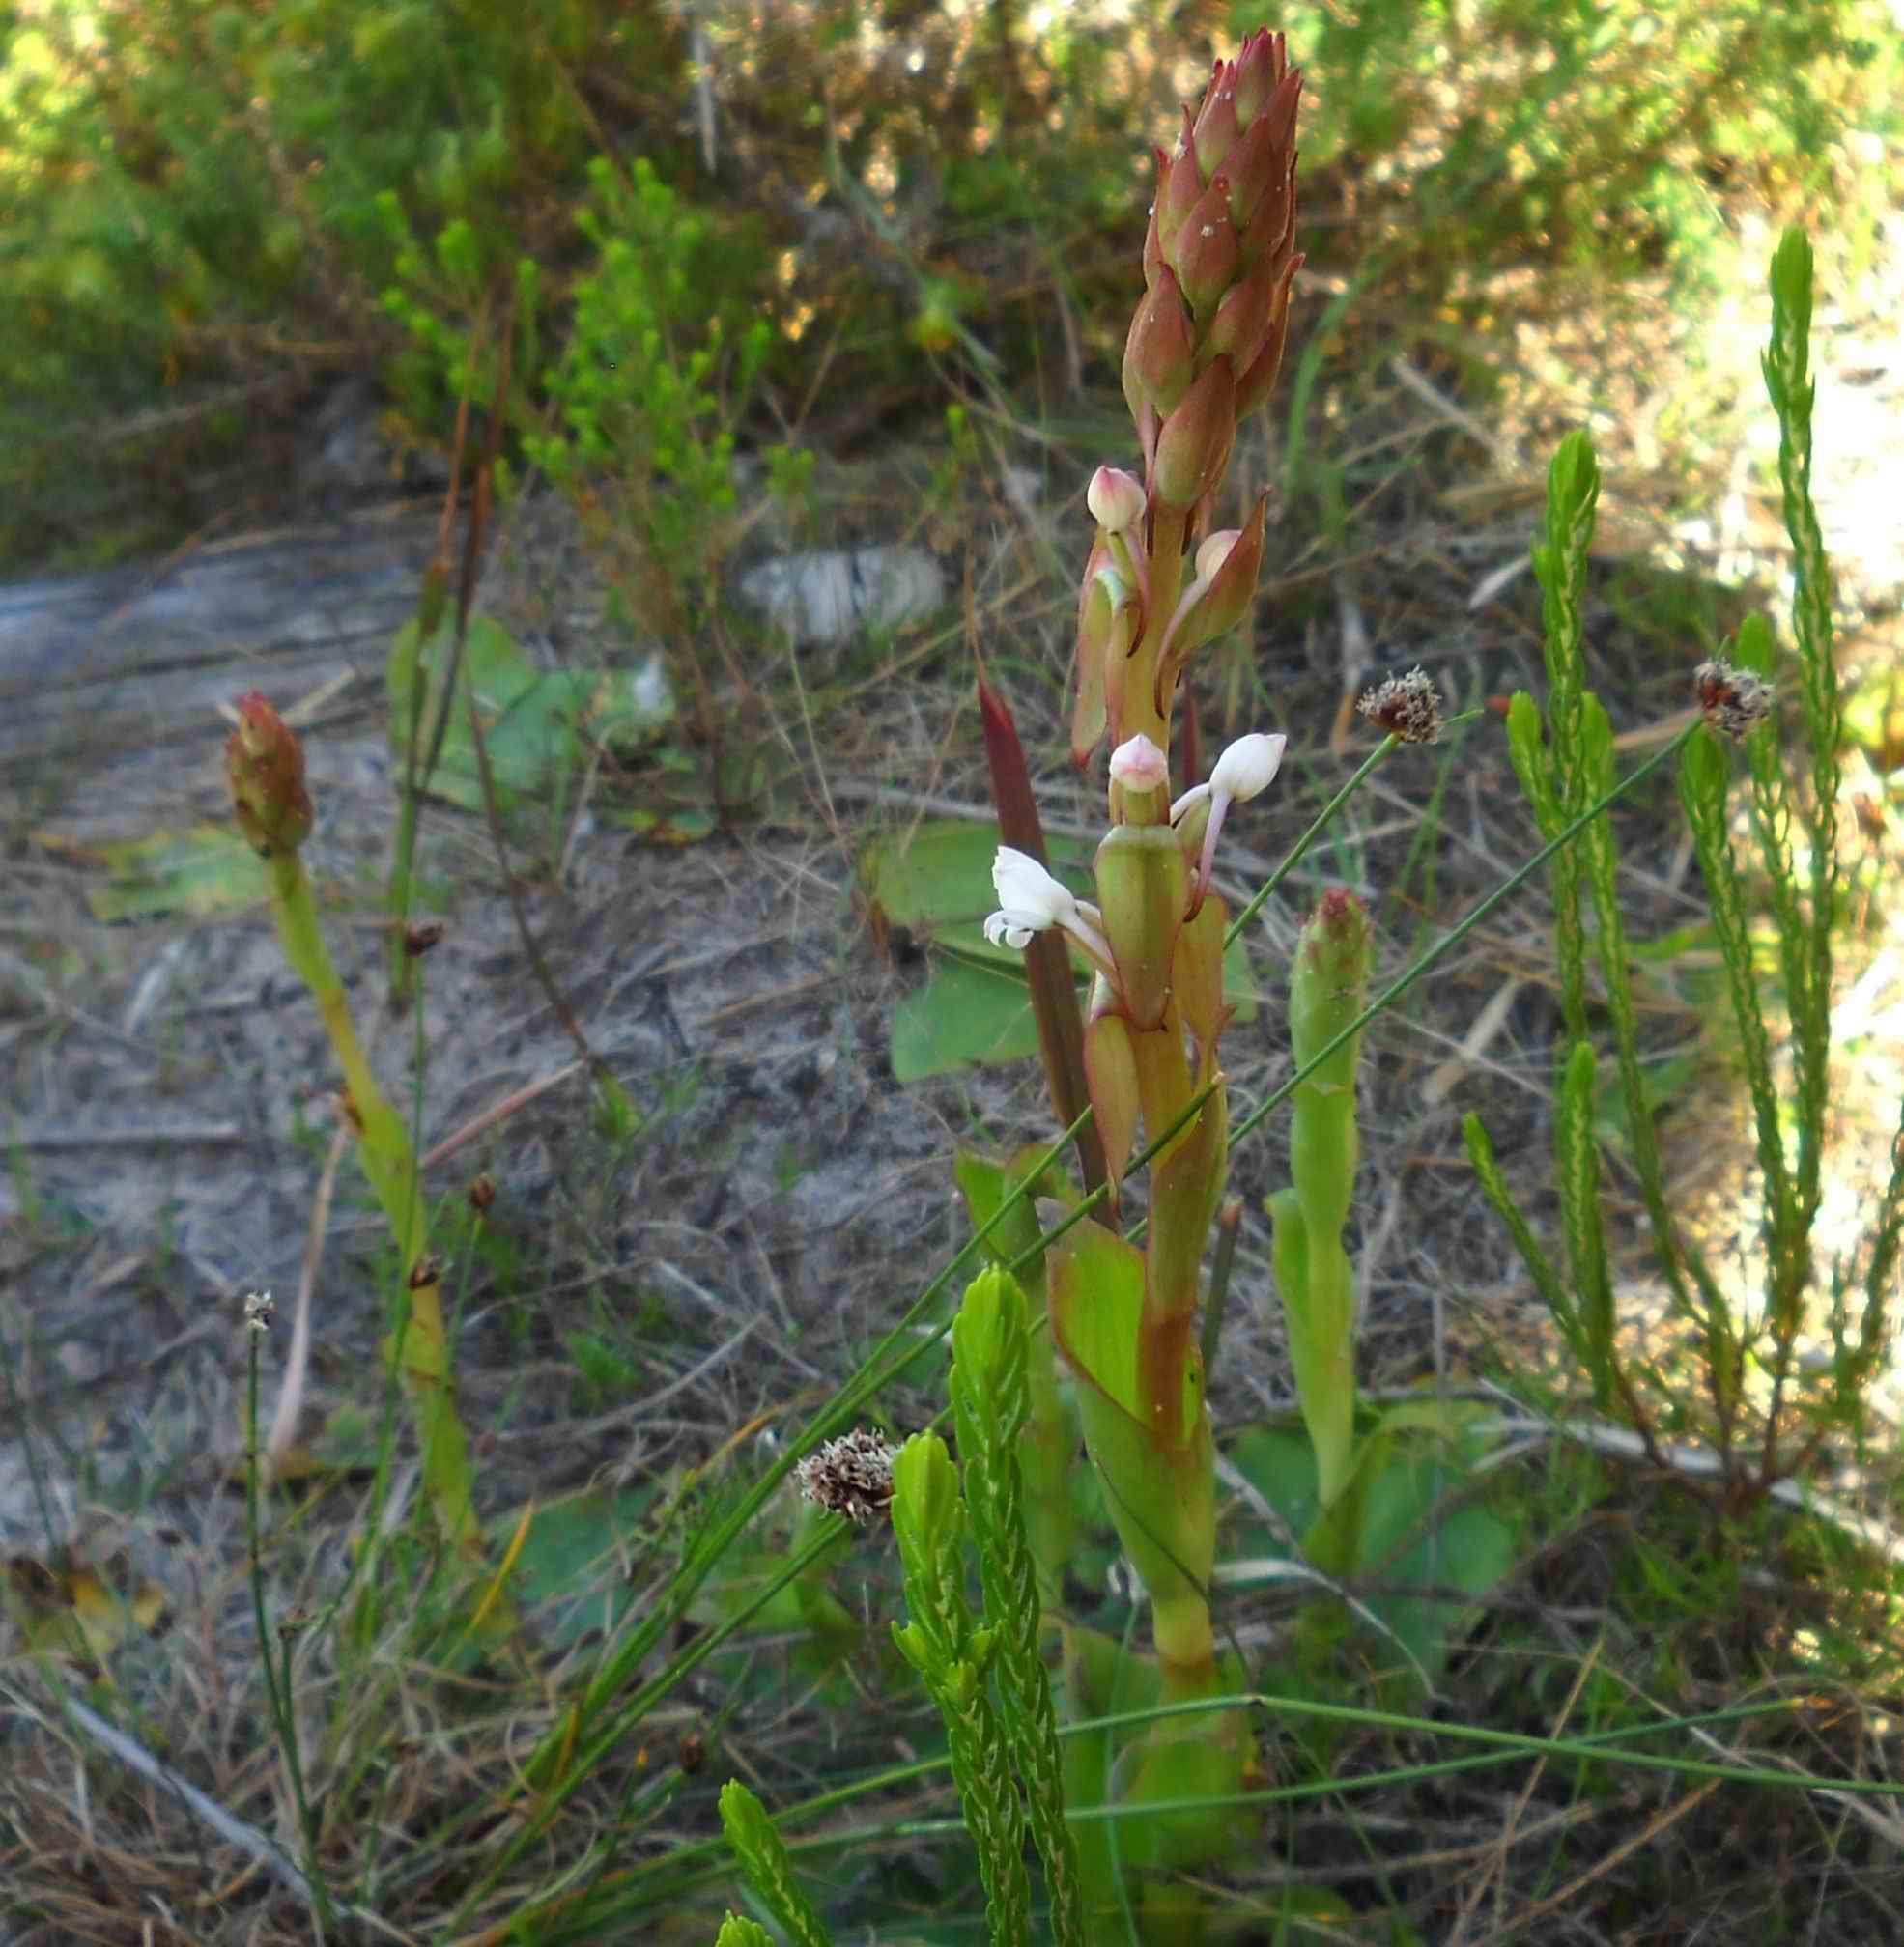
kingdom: Plantae
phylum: Tracheophyta
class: Liliopsida
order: Asparagales
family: Orchidaceae
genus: Satyrium
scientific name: Satyrium acuminatum
